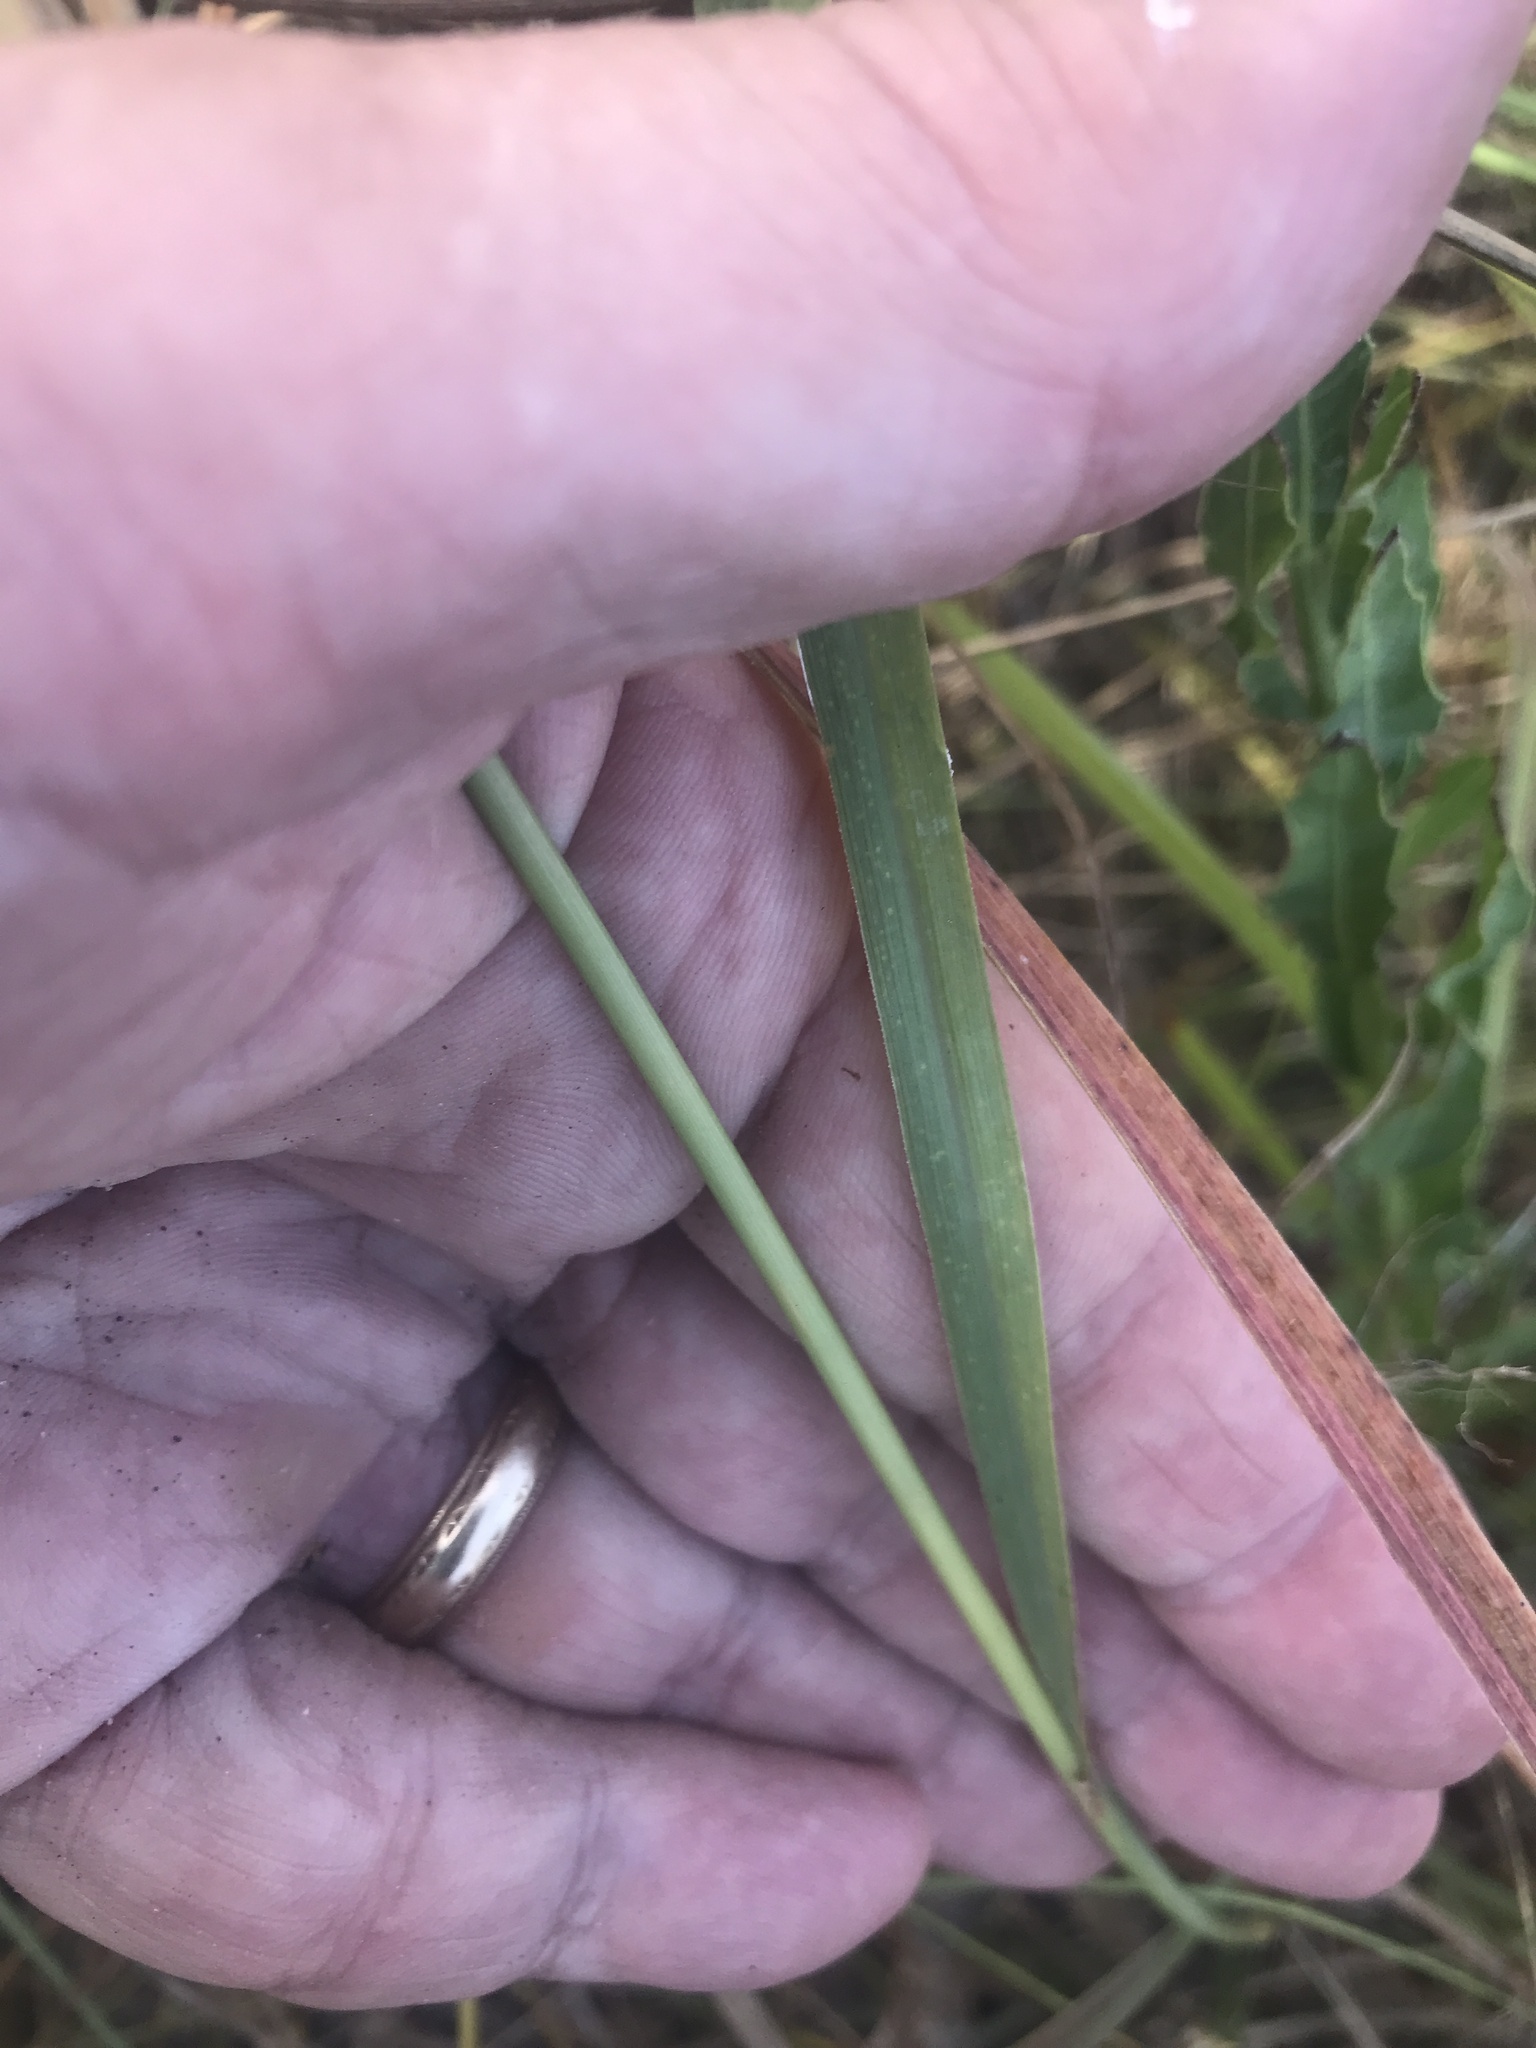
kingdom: Plantae
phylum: Tracheophyta
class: Liliopsida
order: Poales
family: Poaceae
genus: Stapfochloa
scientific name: Stapfochloa canterae
